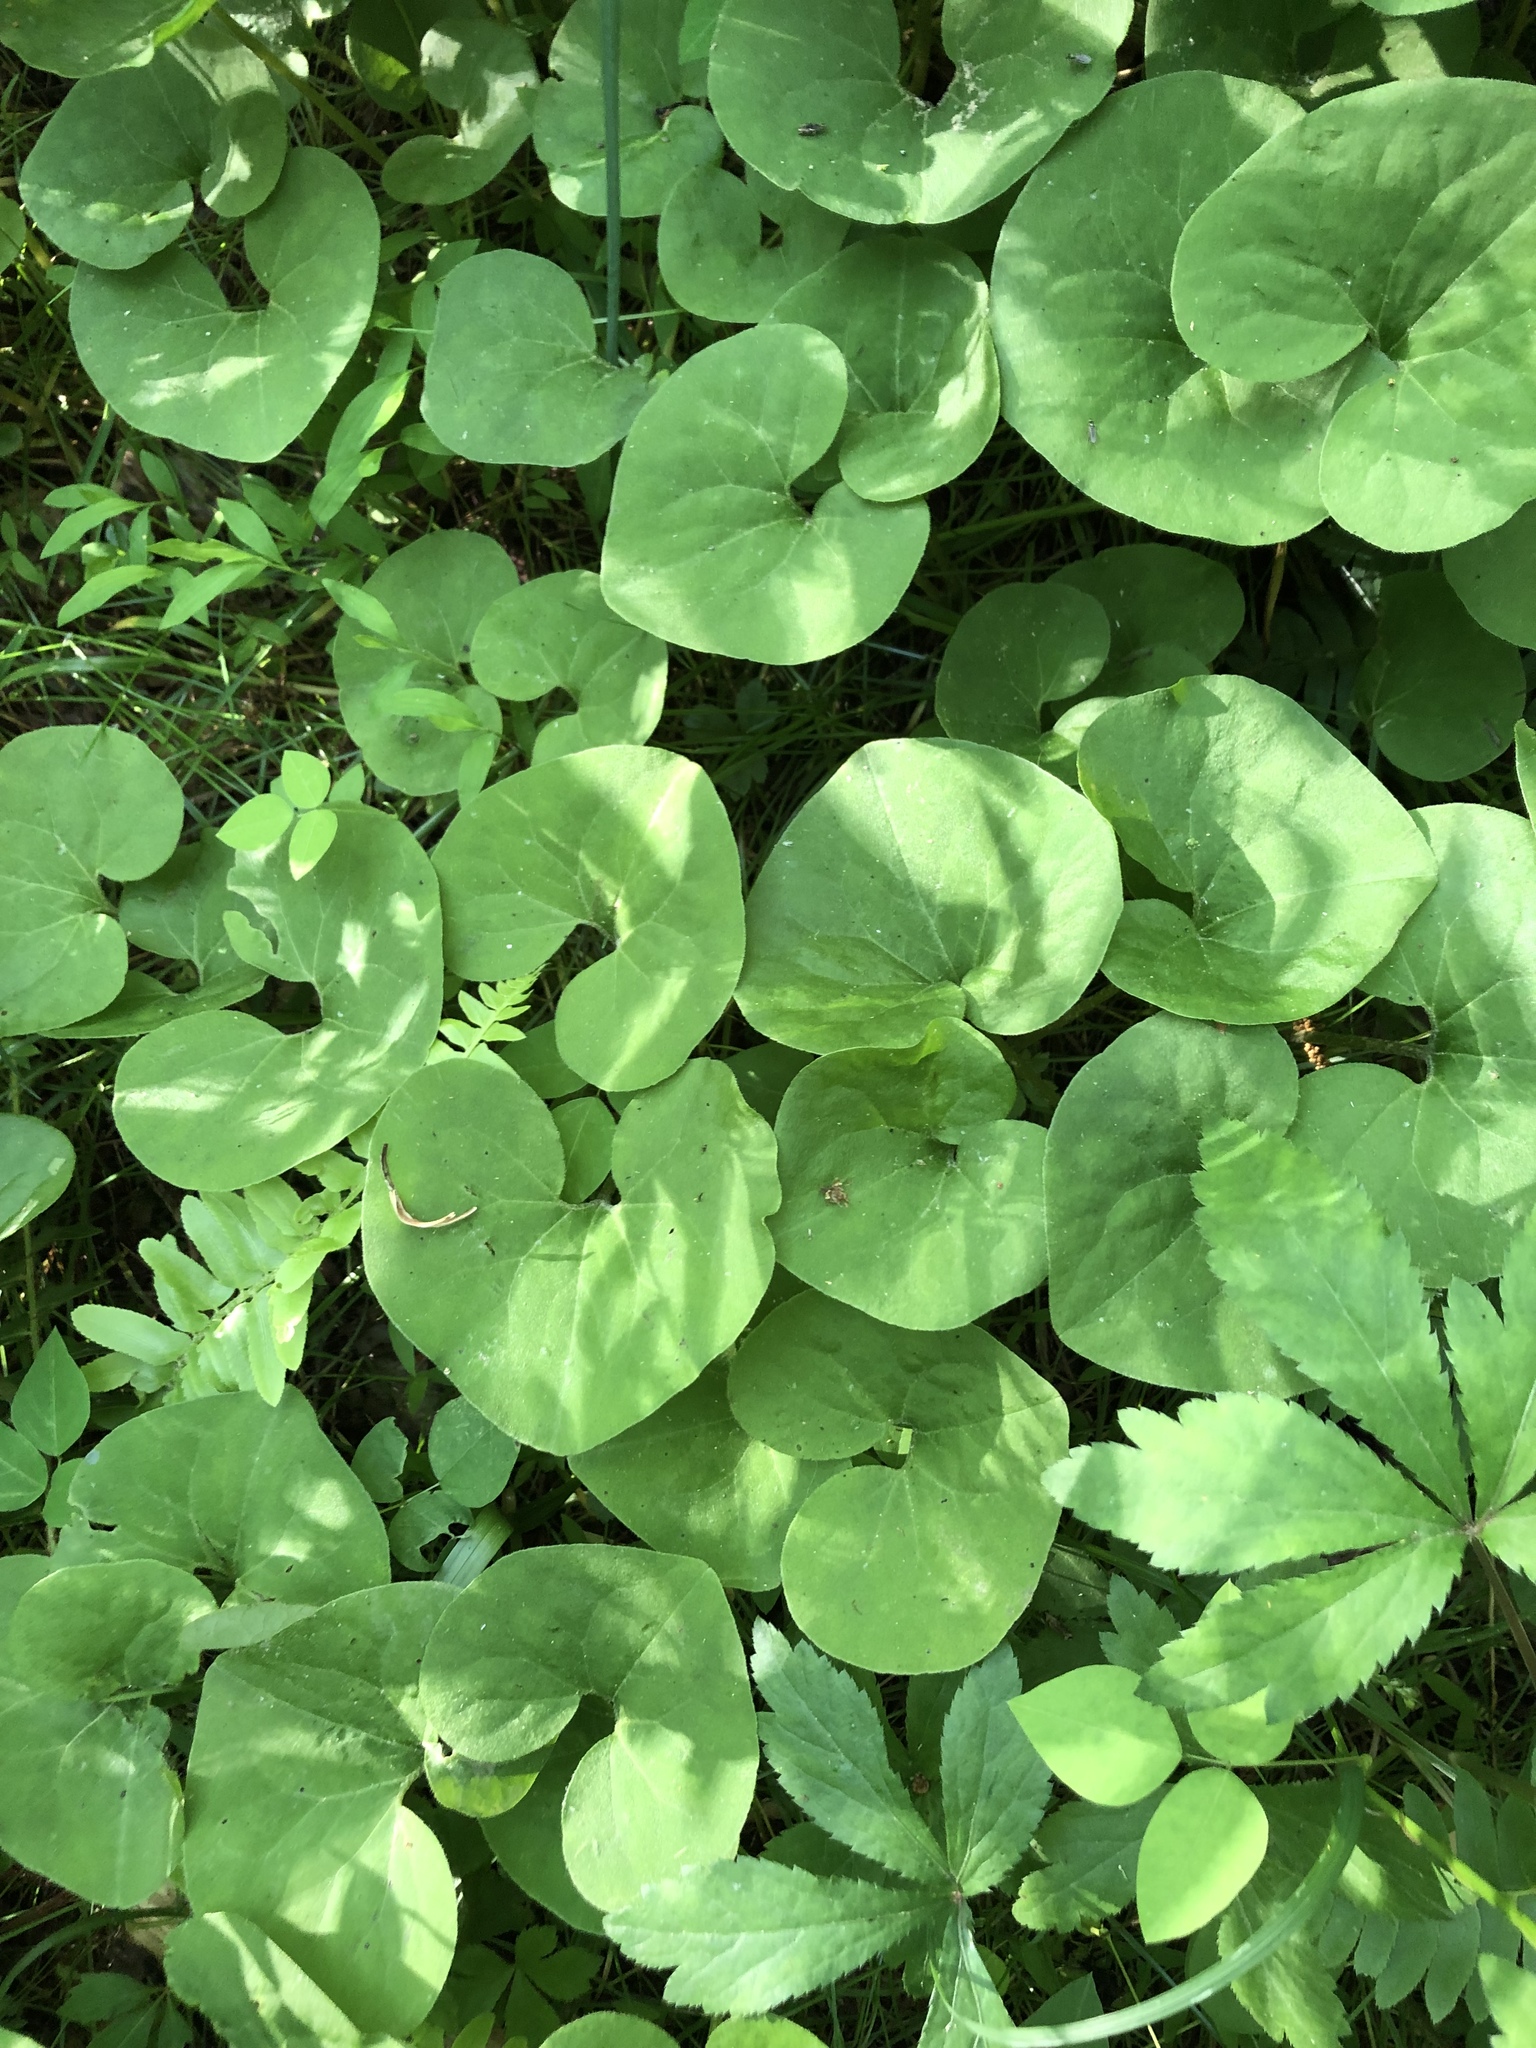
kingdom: Plantae
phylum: Tracheophyta
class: Magnoliopsida
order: Piperales
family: Aristolochiaceae
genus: Asarum
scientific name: Asarum canadense
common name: Wild ginger
